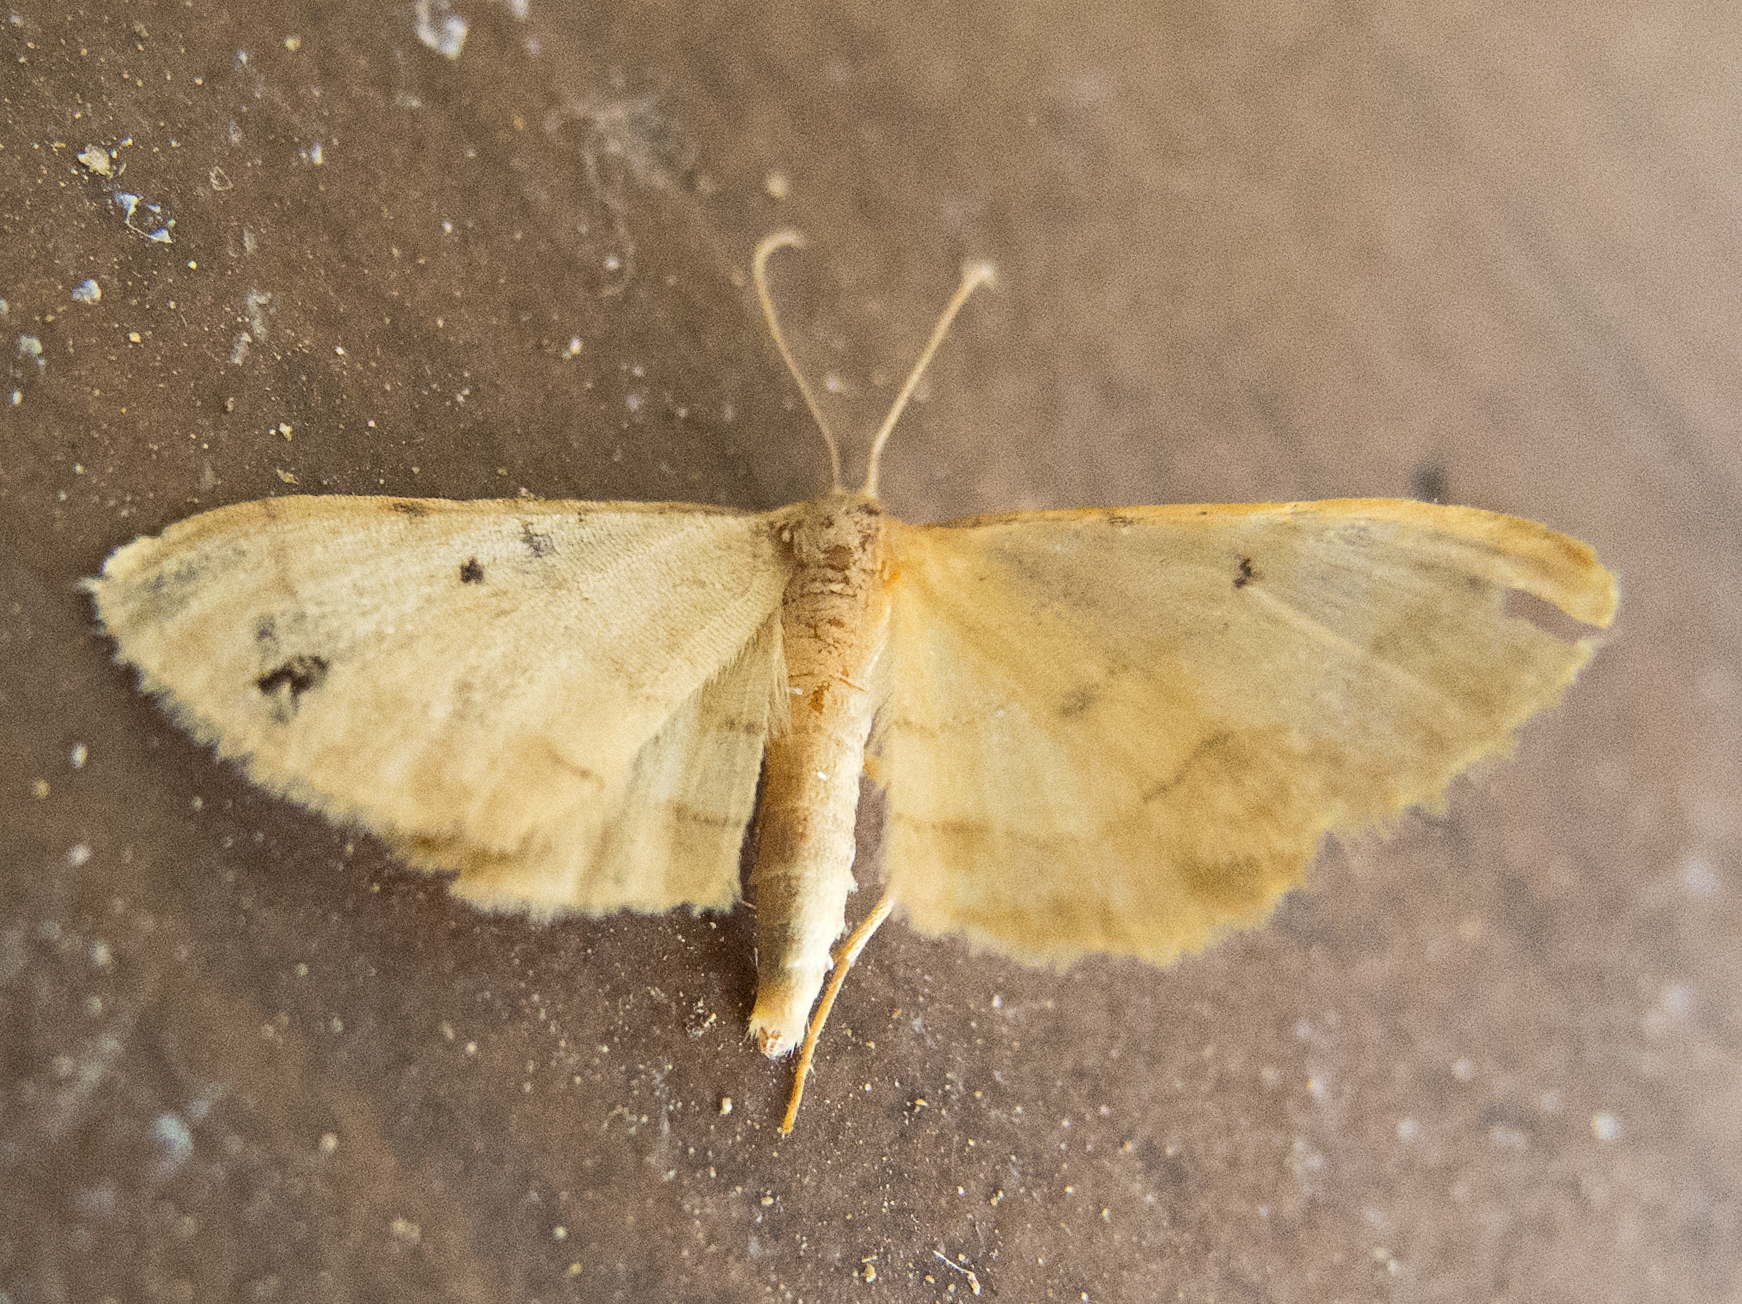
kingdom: Animalia
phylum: Arthropoda
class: Insecta
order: Lepidoptera
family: Geometridae
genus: Idaea
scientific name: Idaea politaria
